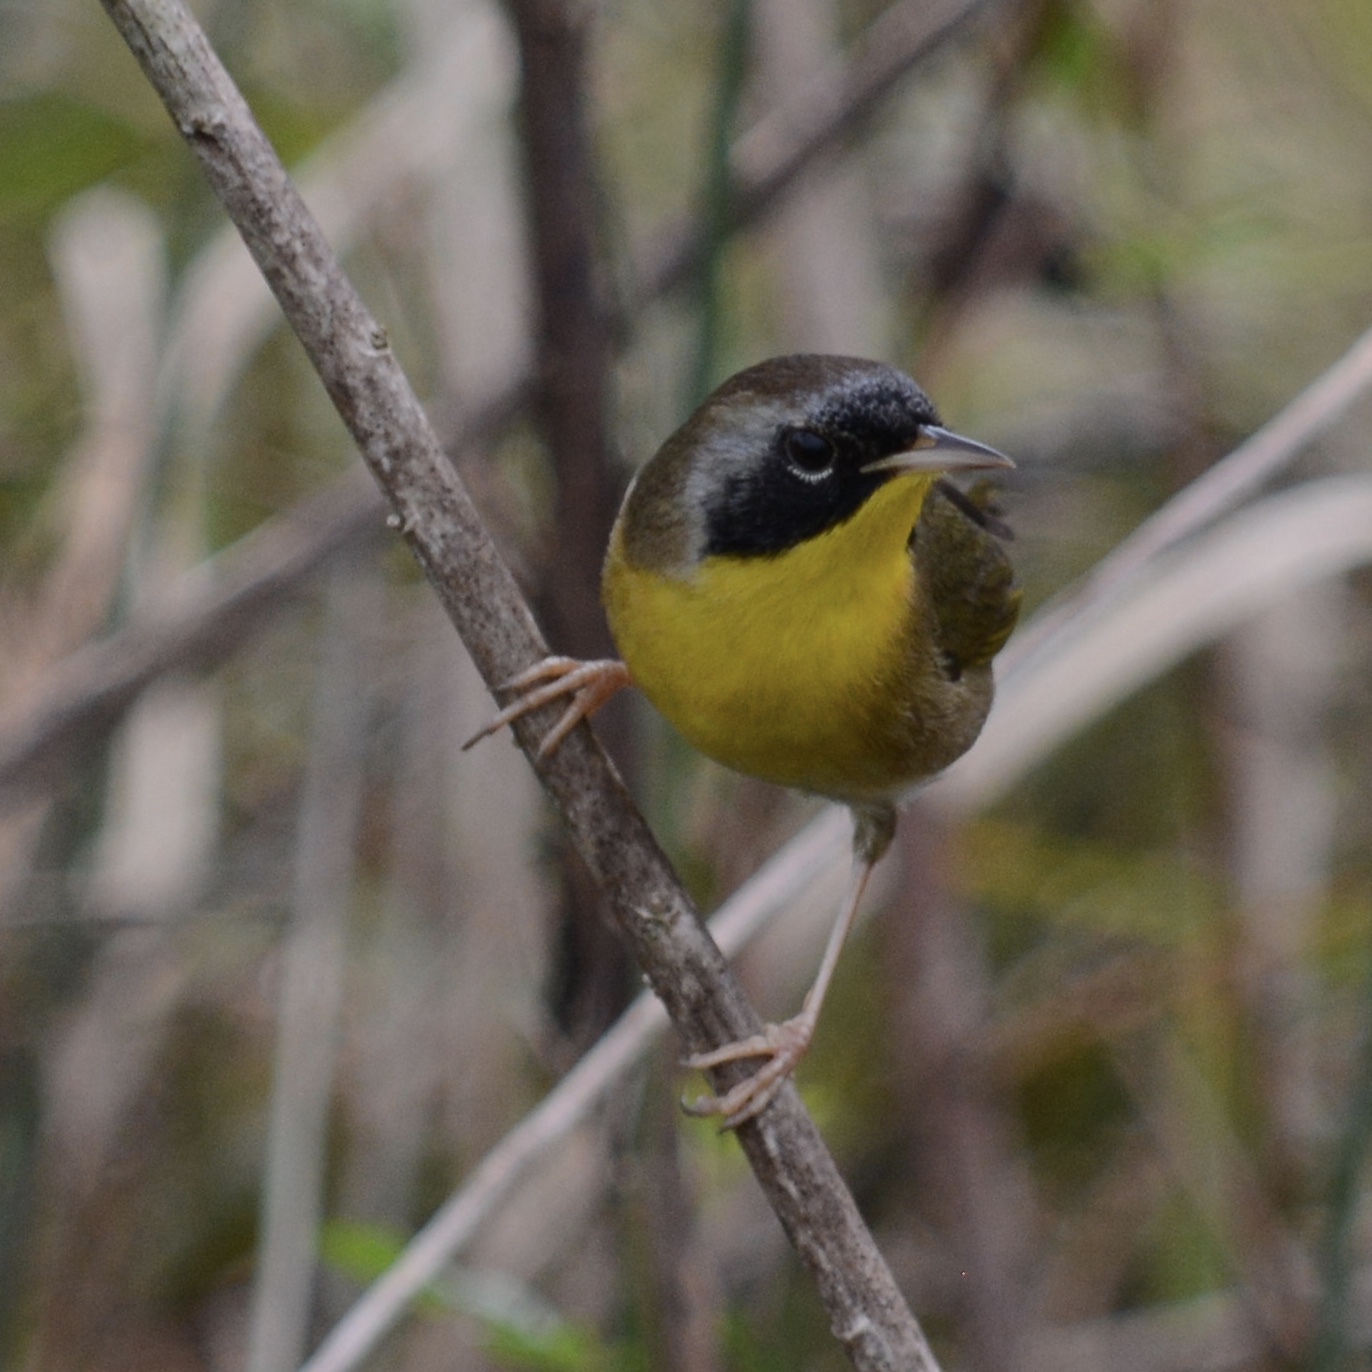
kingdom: Animalia
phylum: Chordata
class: Aves
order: Passeriformes
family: Parulidae
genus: Geothlypis
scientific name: Geothlypis trichas
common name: Common yellowthroat
